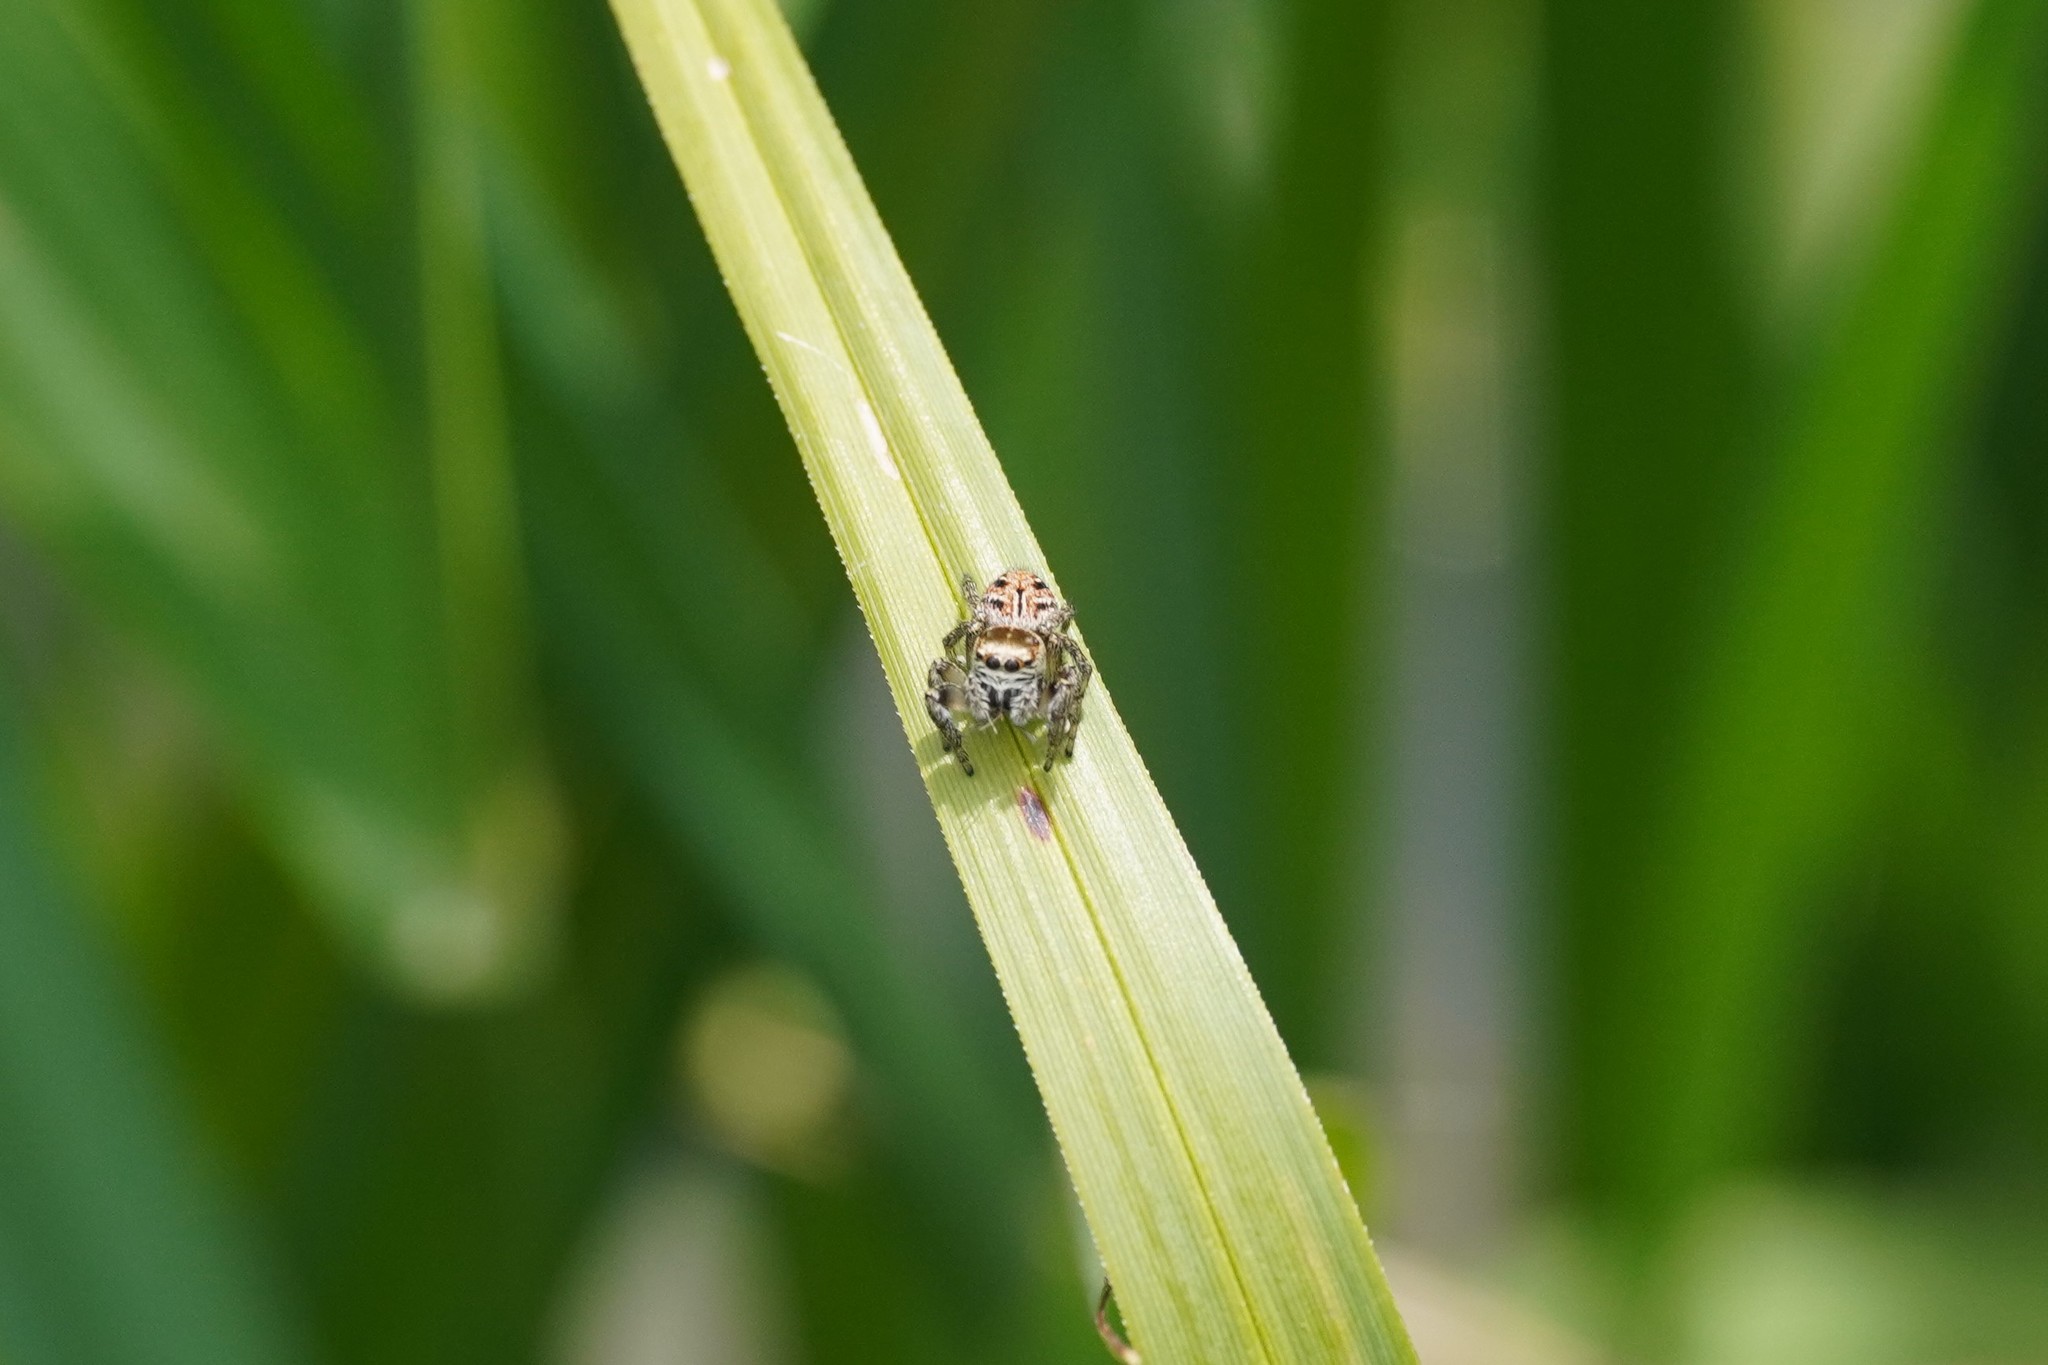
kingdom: Animalia
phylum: Arthropoda
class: Arachnida
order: Araneae
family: Salticidae
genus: Evarcha
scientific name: Evarcha arcuata
